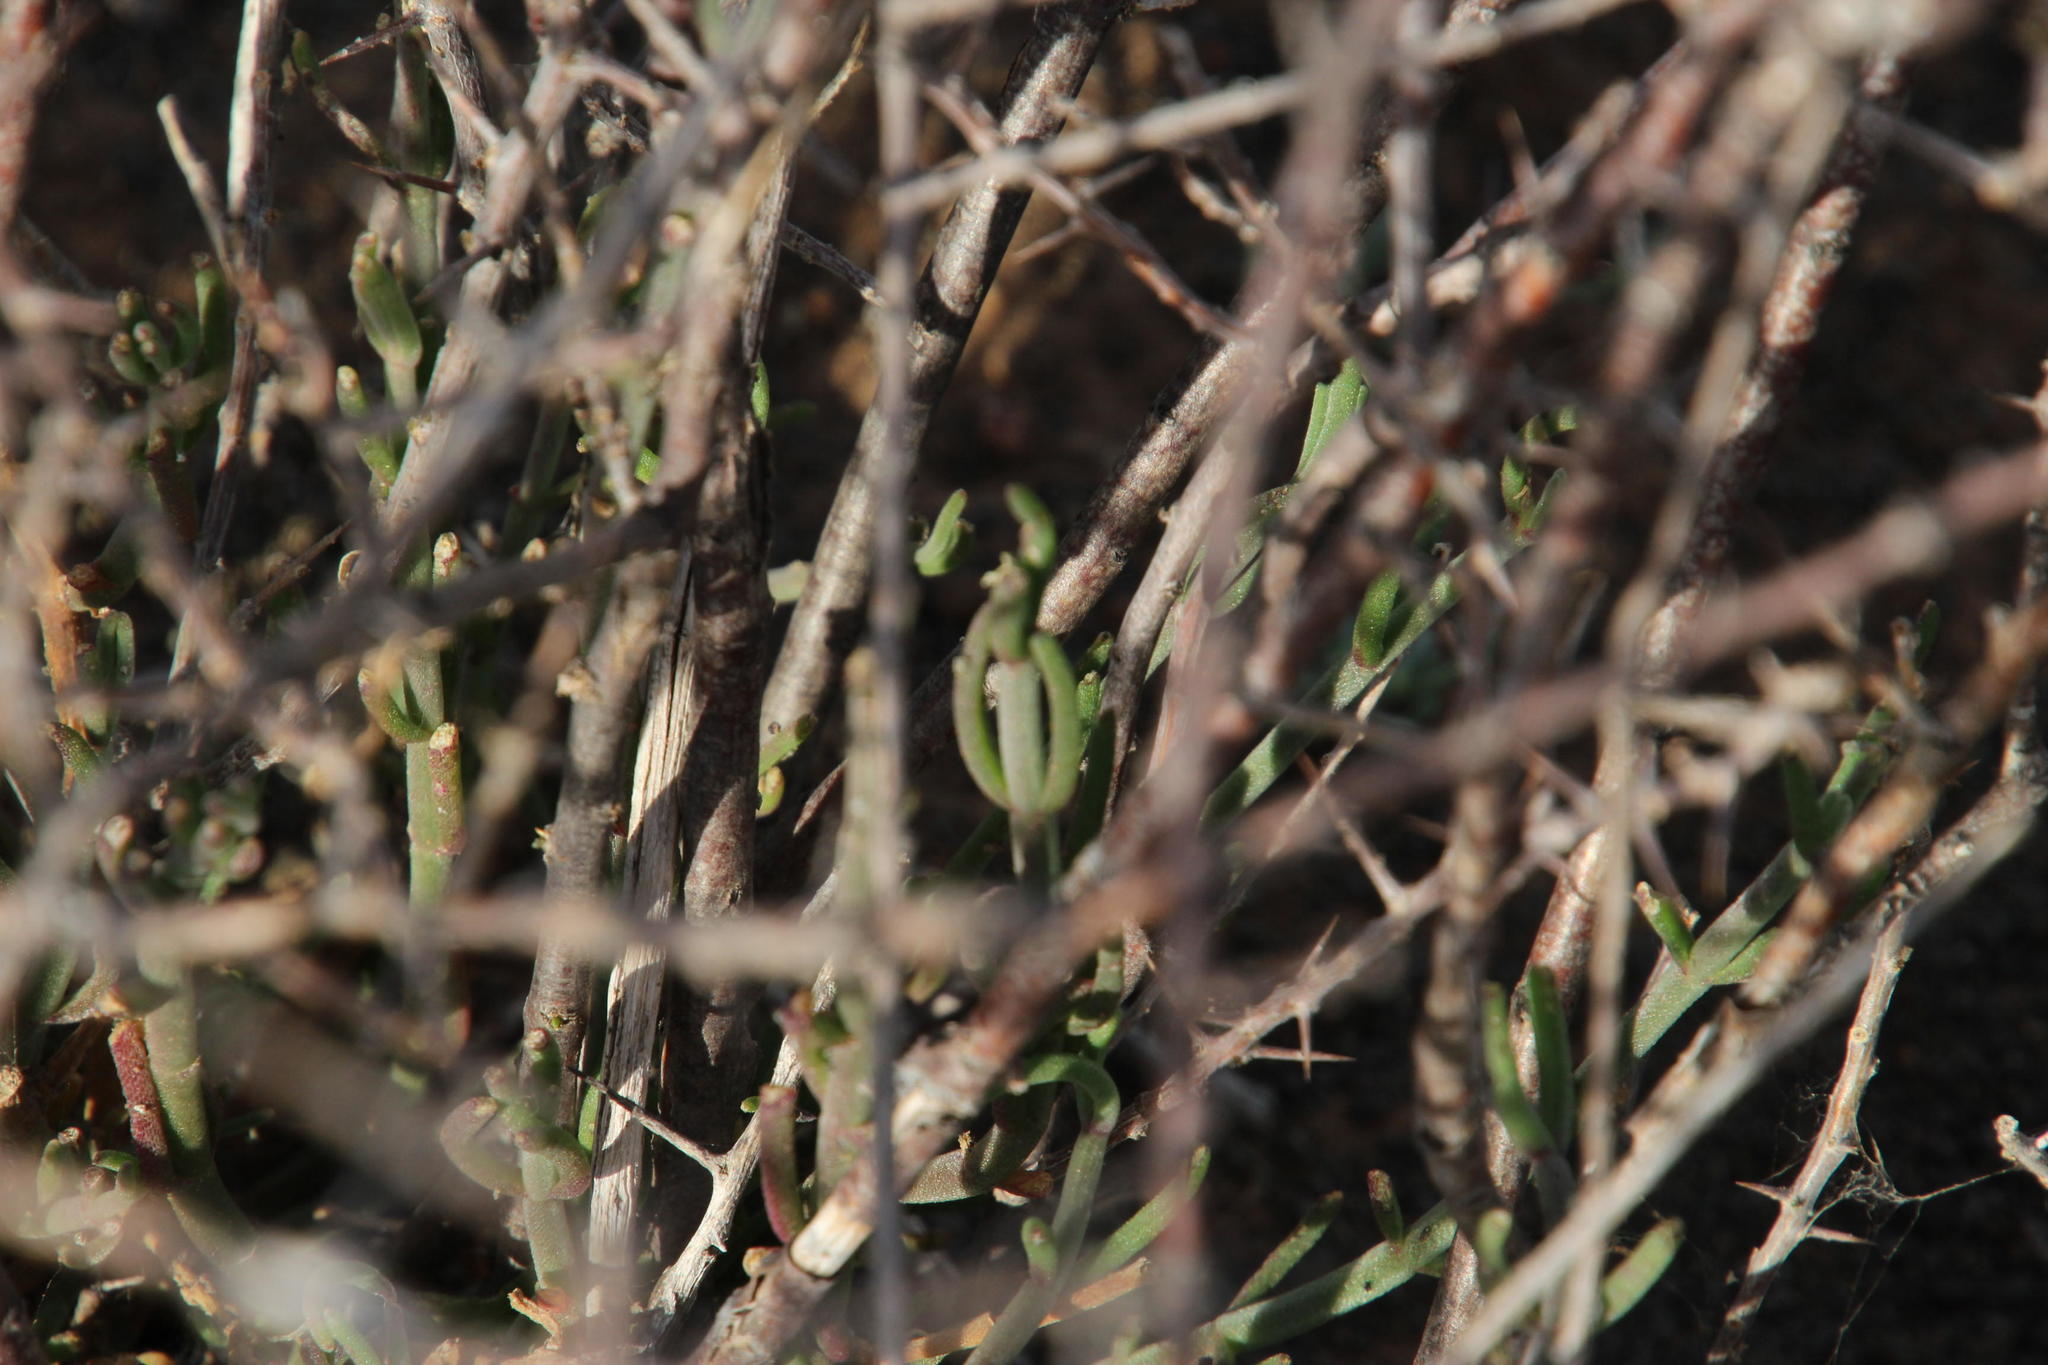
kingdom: Plantae
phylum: Tracheophyta
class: Magnoliopsida
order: Caryophyllales
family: Aizoaceae
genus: Mesembryanthemum
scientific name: Mesembryanthemum geniculiflorum
